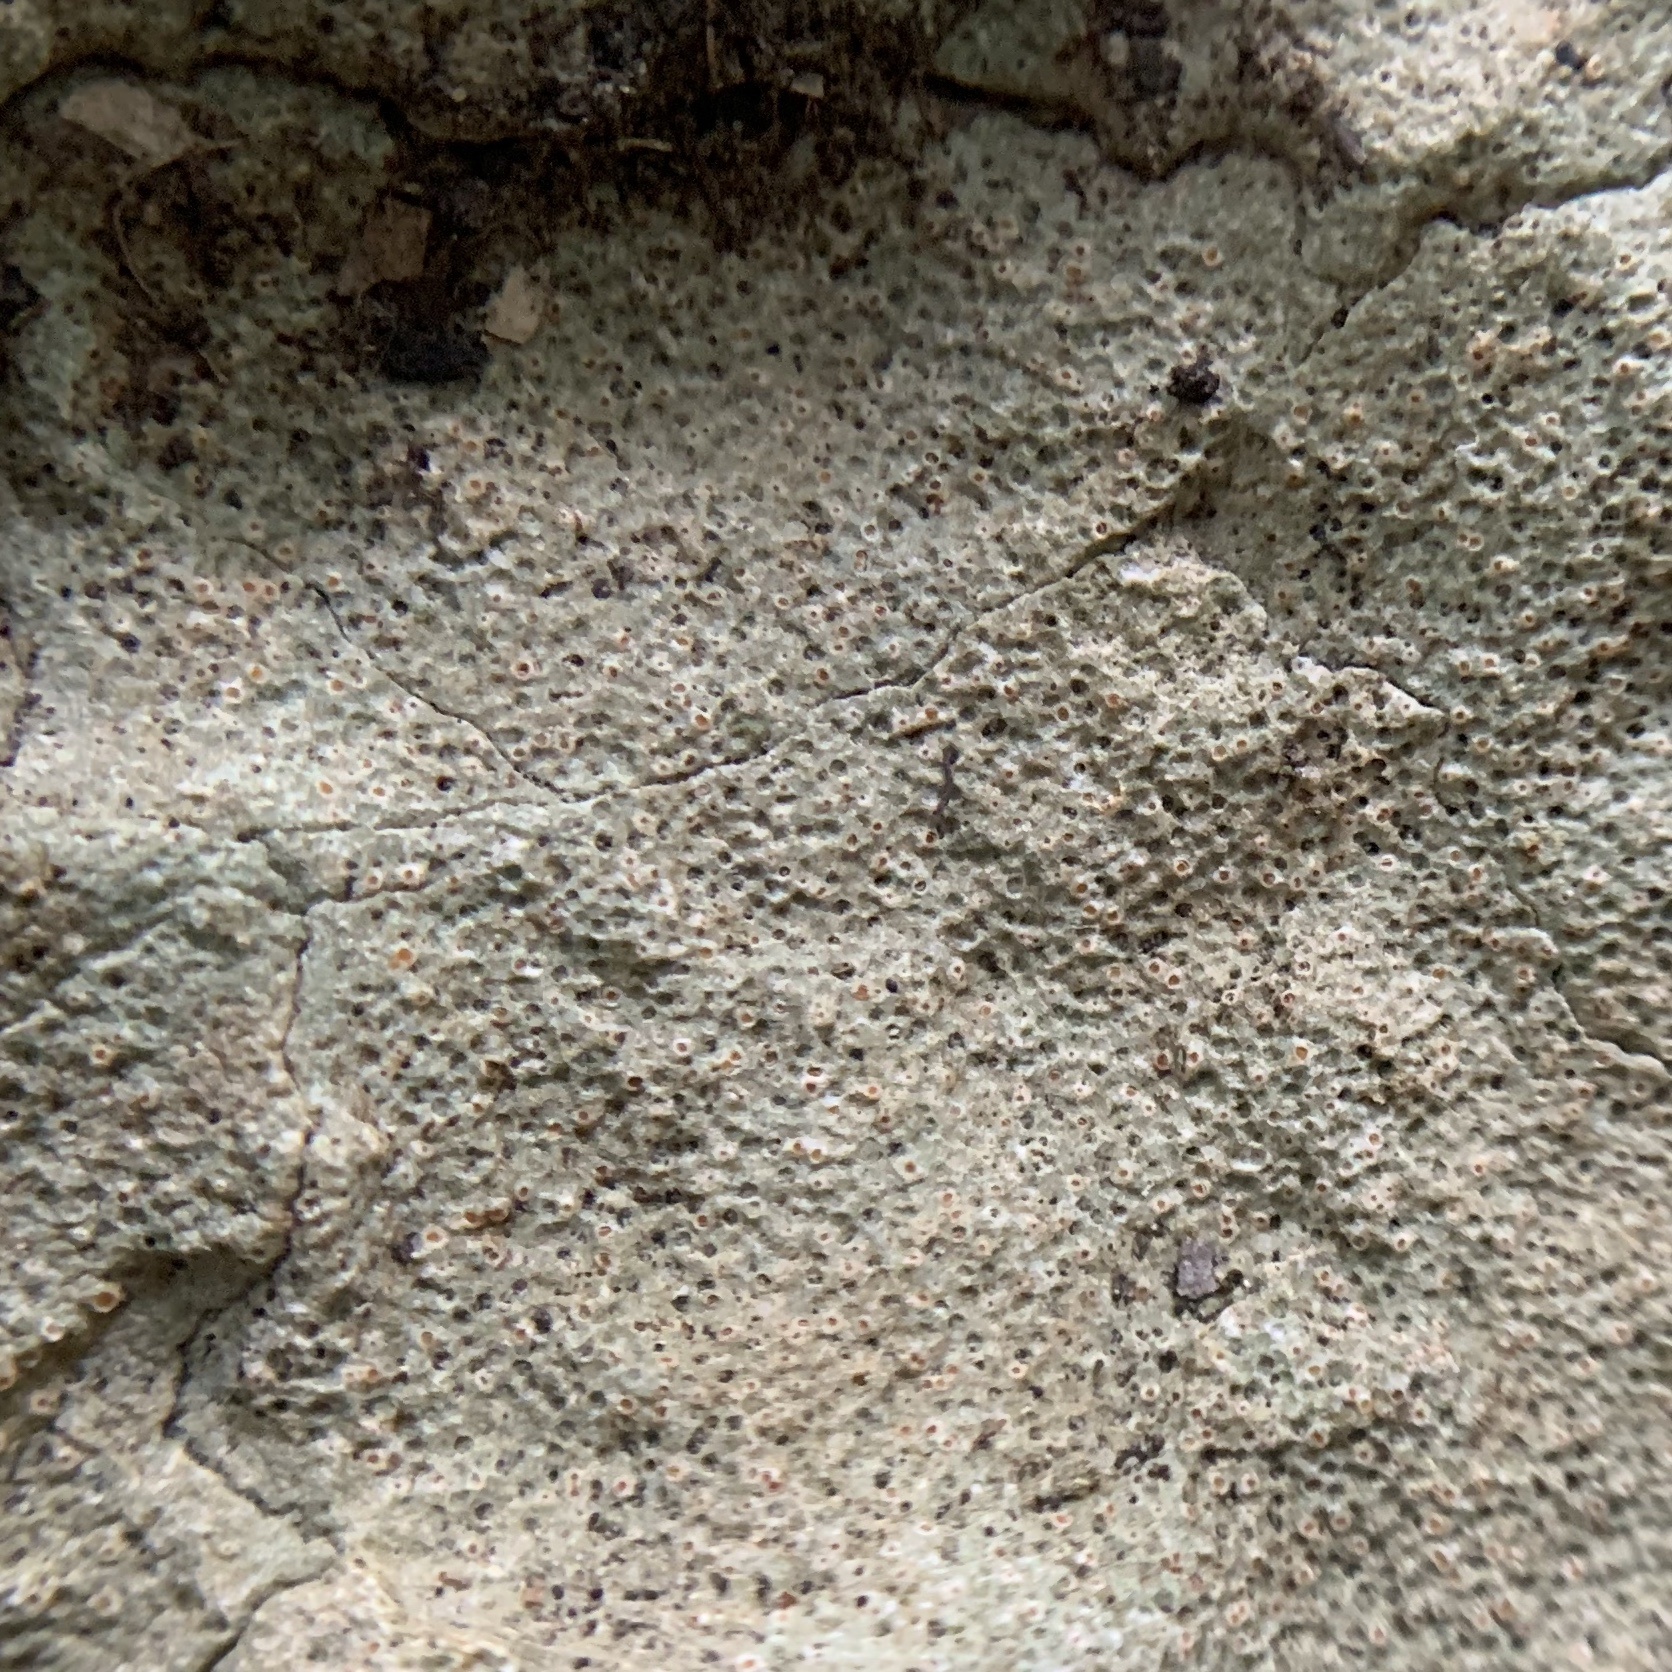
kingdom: Fungi
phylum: Ascomycota
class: Lecanoromycetes
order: Ostropales
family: Stictidaceae
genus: Petractis
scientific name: Petractis farlowii
